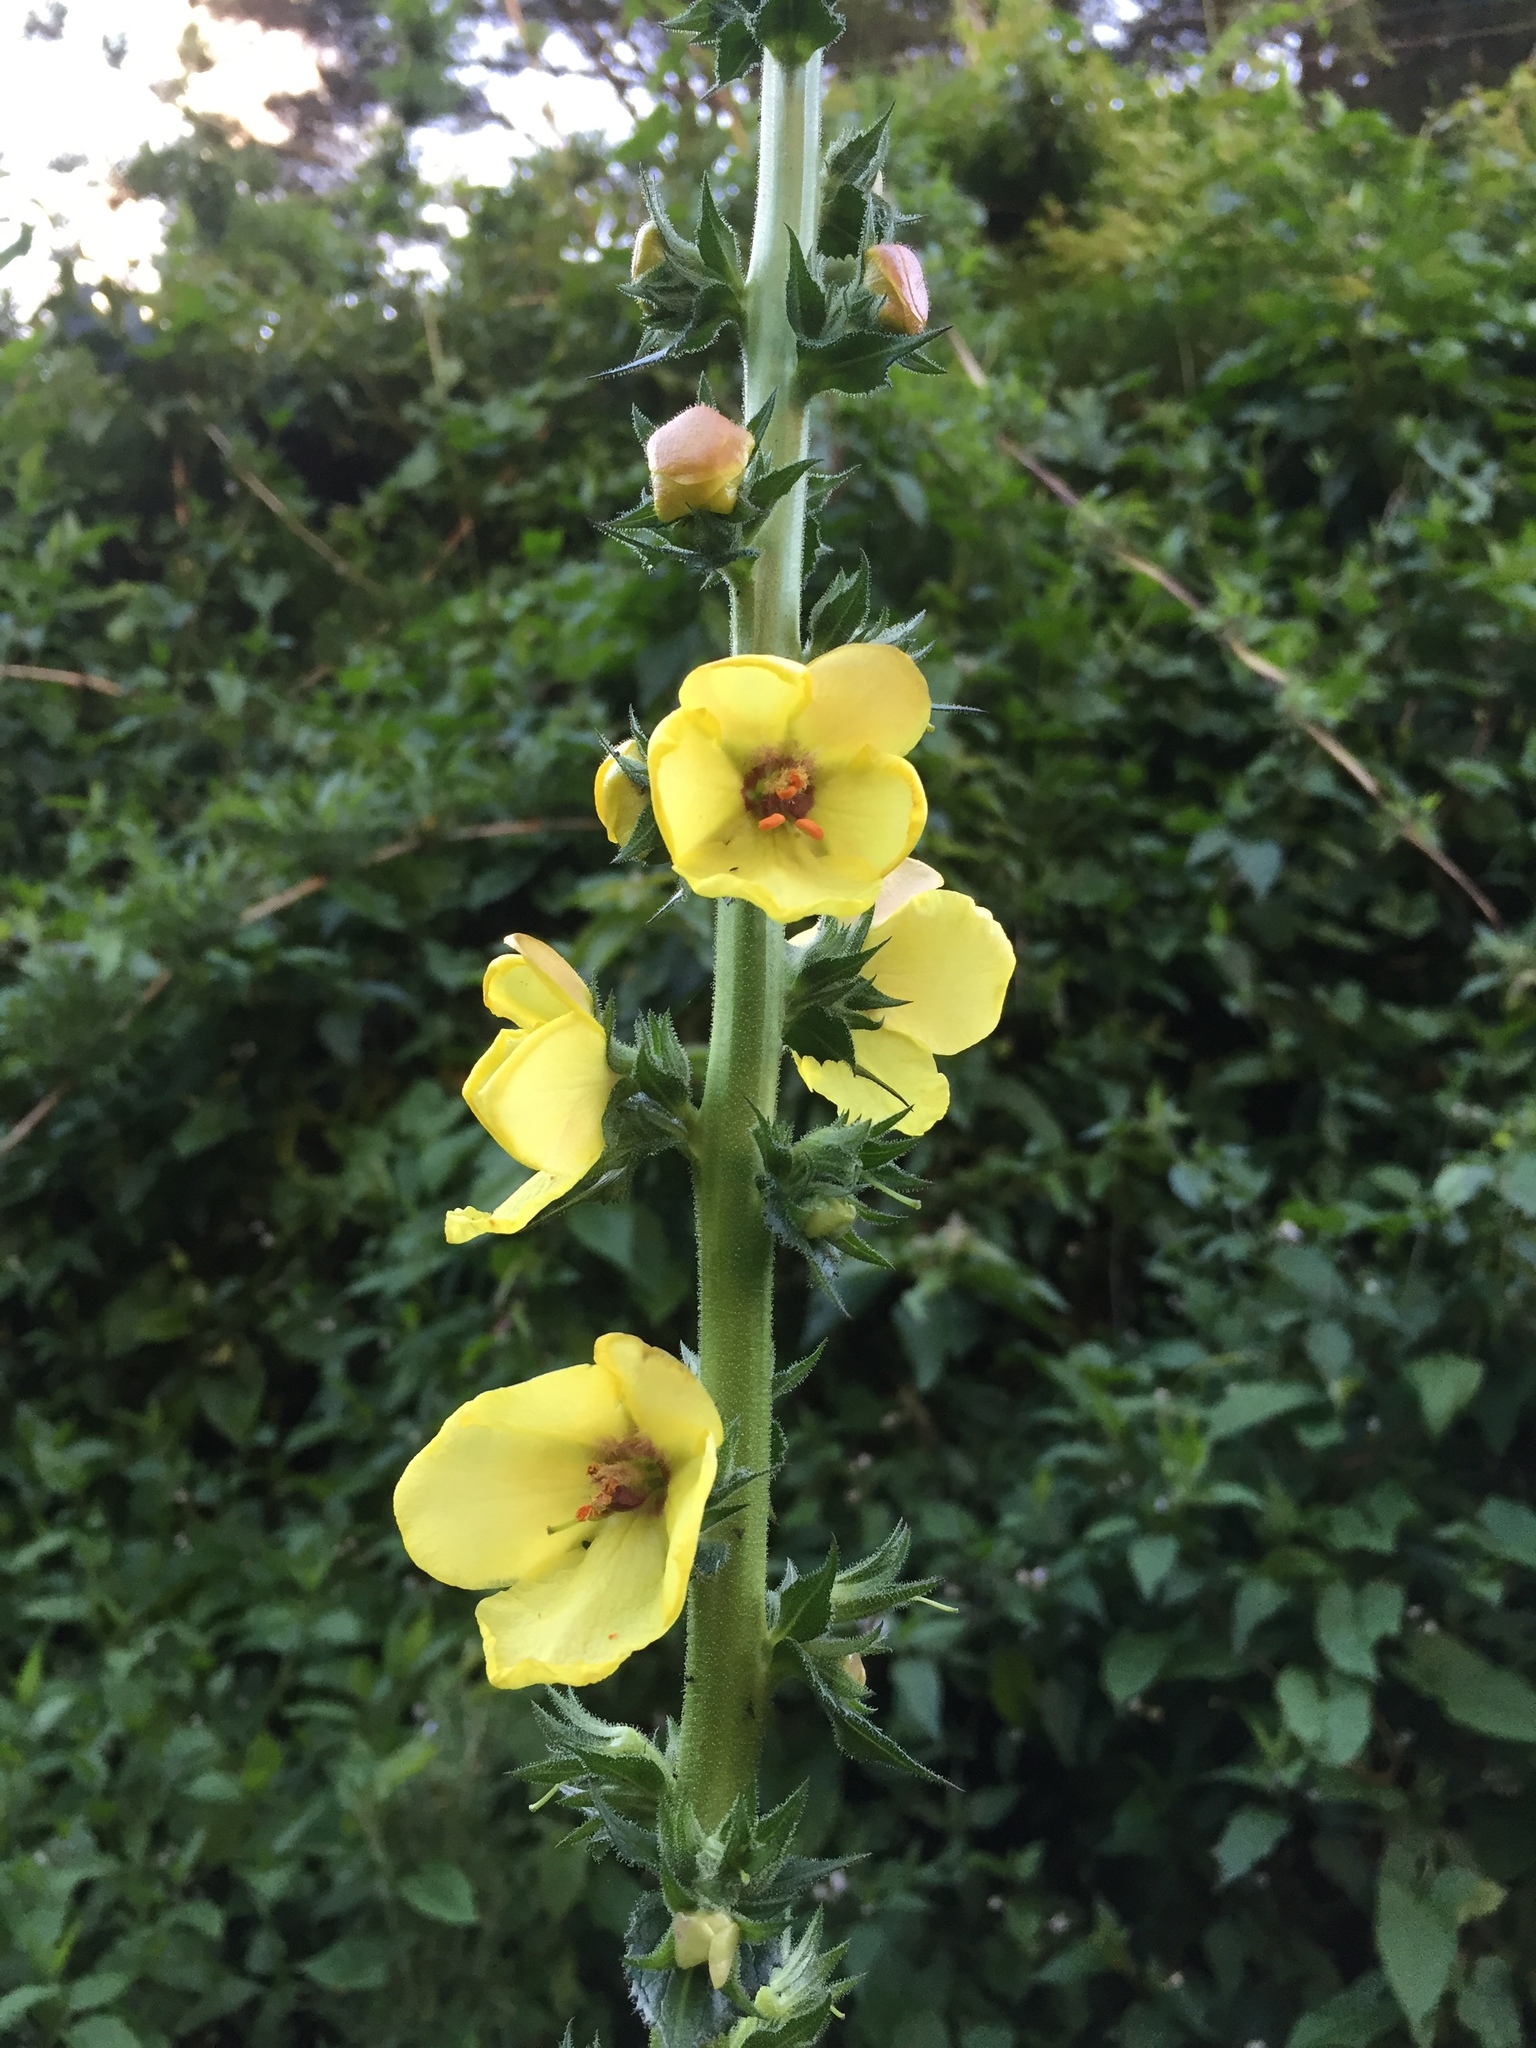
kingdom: Plantae
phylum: Tracheophyta
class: Magnoliopsida
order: Lamiales
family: Scrophulariaceae
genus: Verbascum
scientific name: Verbascum virgatum
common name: Twiggy mullein
